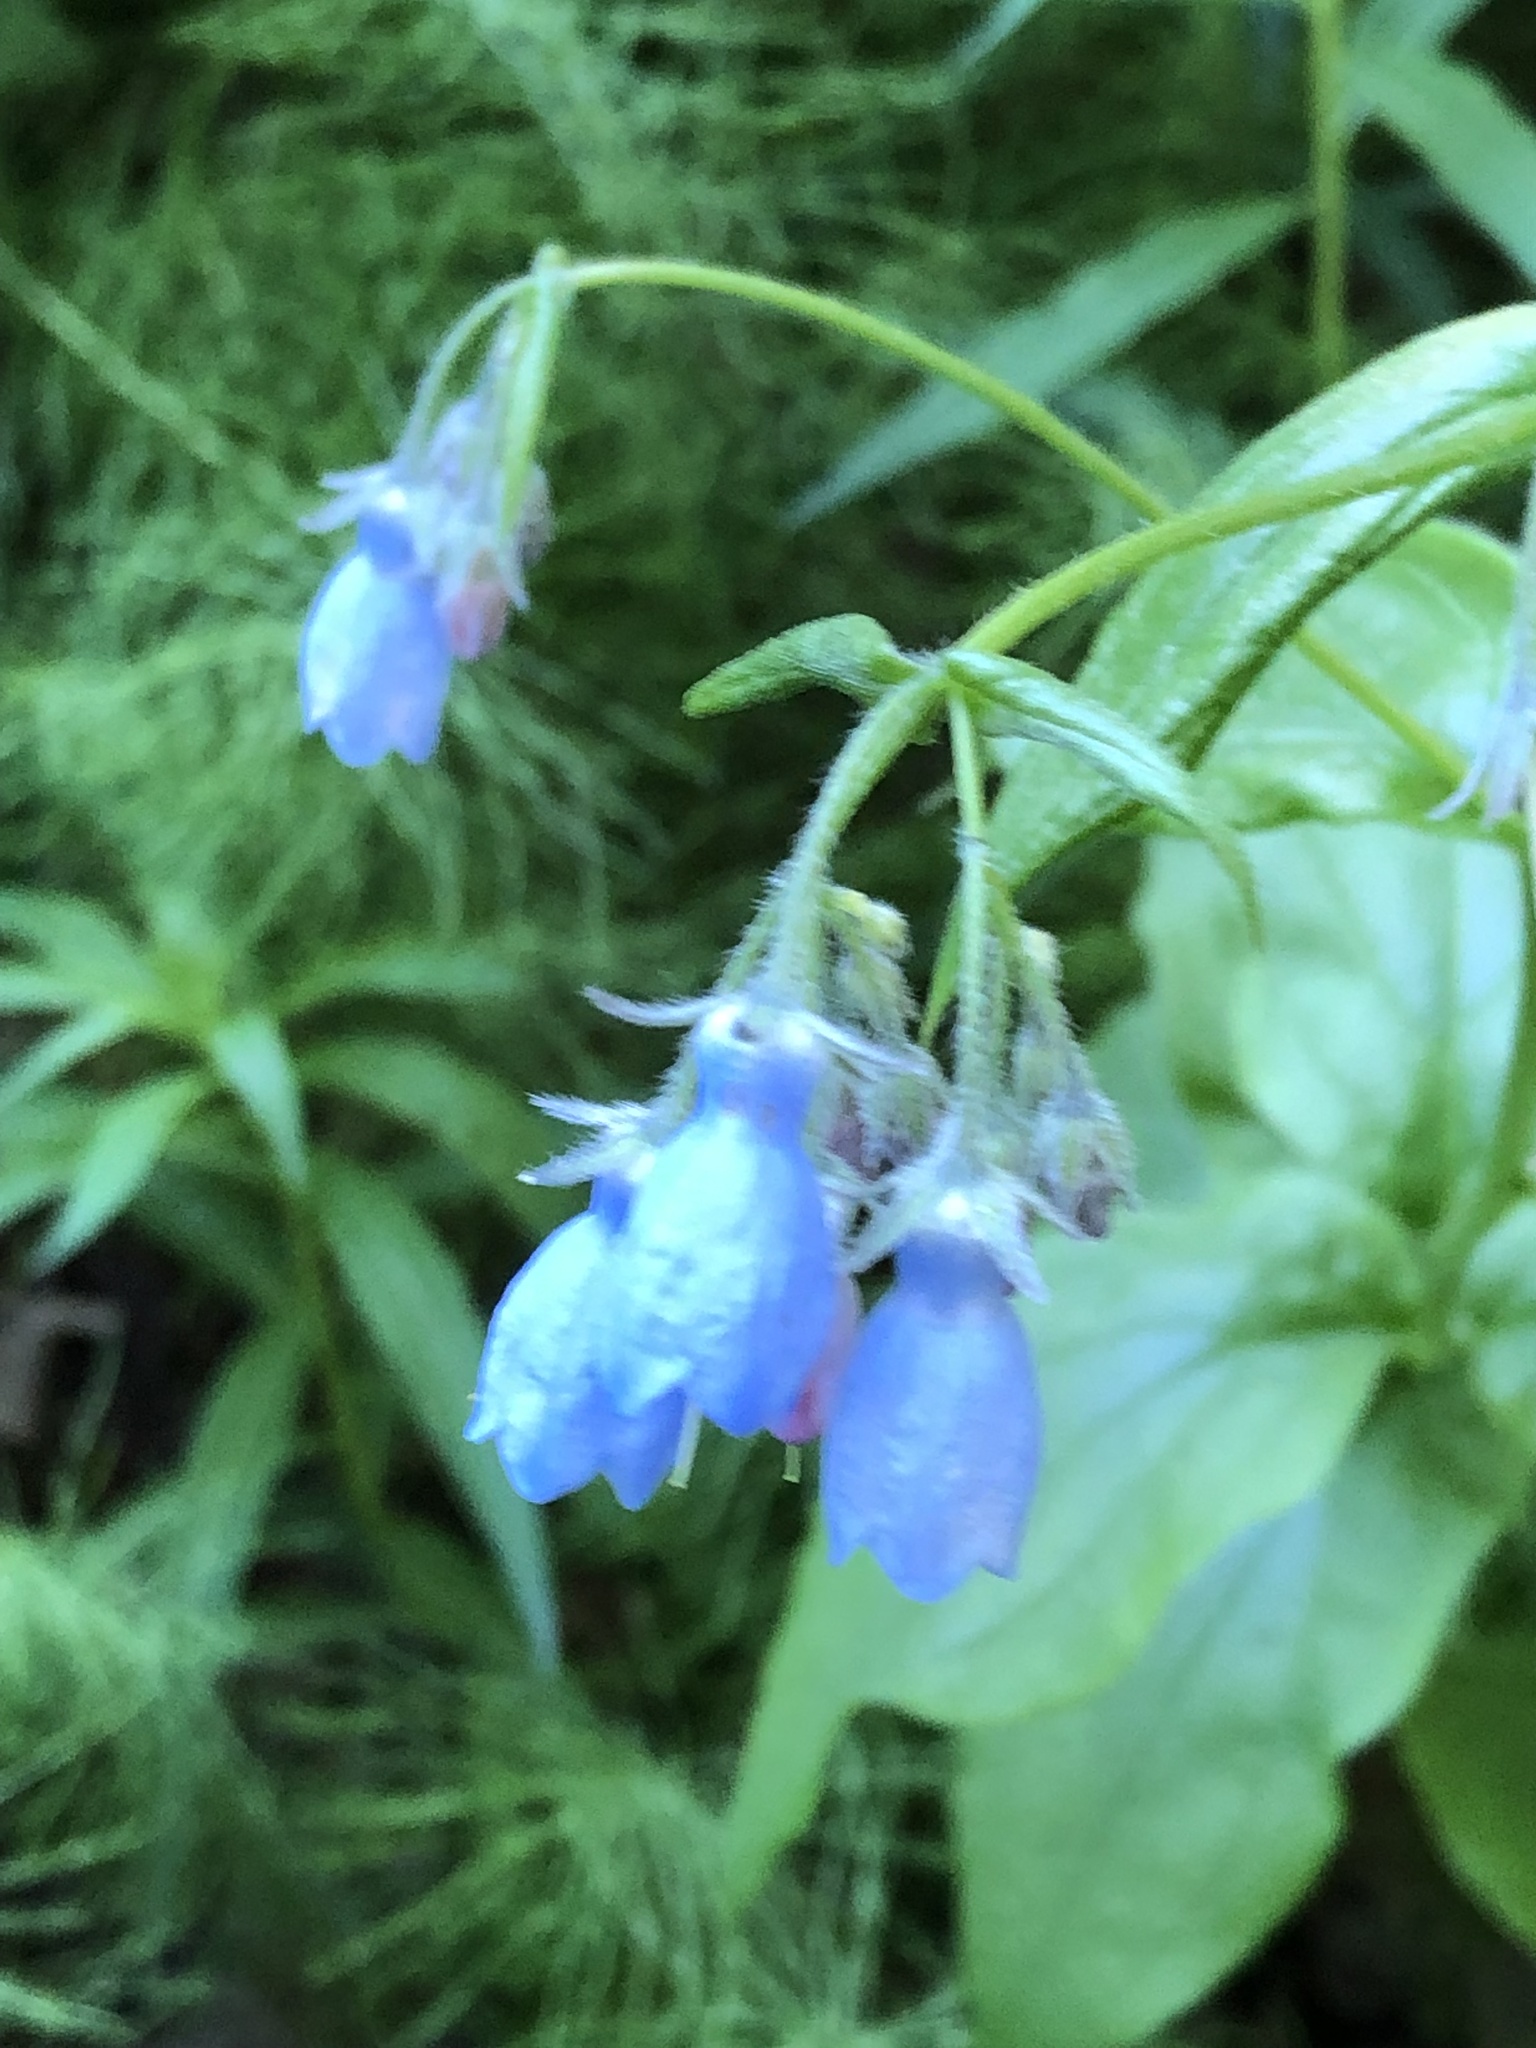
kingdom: Plantae
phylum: Tracheophyta
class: Magnoliopsida
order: Boraginales
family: Boraginaceae
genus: Mertensia
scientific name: Mertensia paniculata
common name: Panicled bluebells
